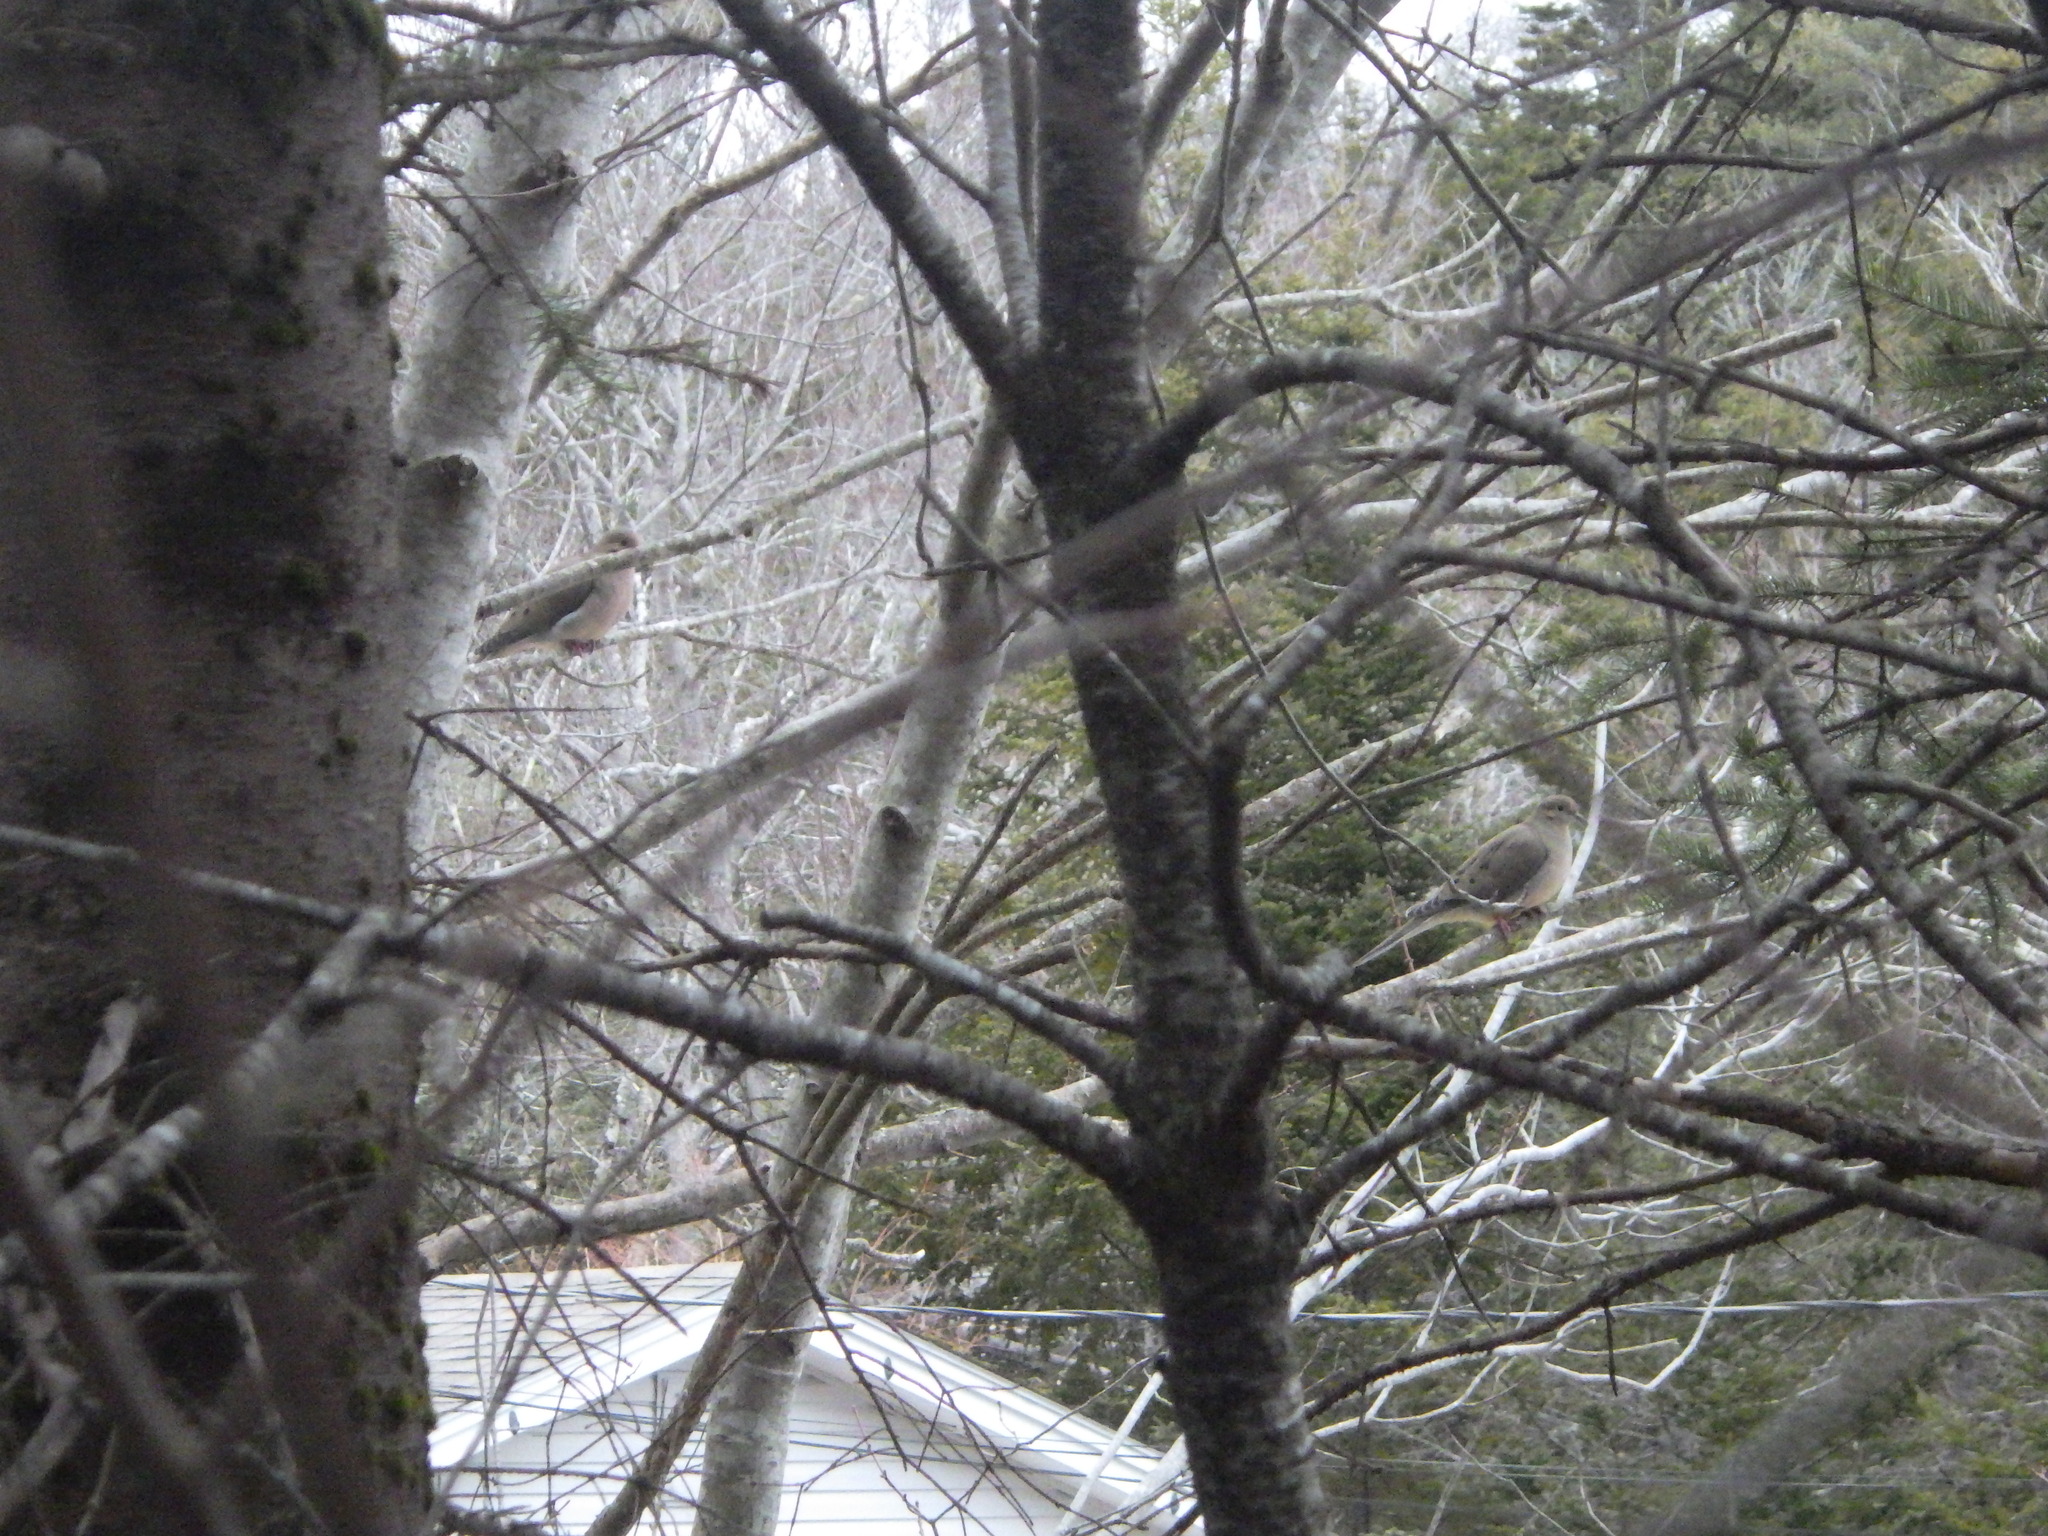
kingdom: Animalia
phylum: Chordata
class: Aves
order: Columbiformes
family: Columbidae
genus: Zenaida
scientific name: Zenaida macroura
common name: Mourning dove
